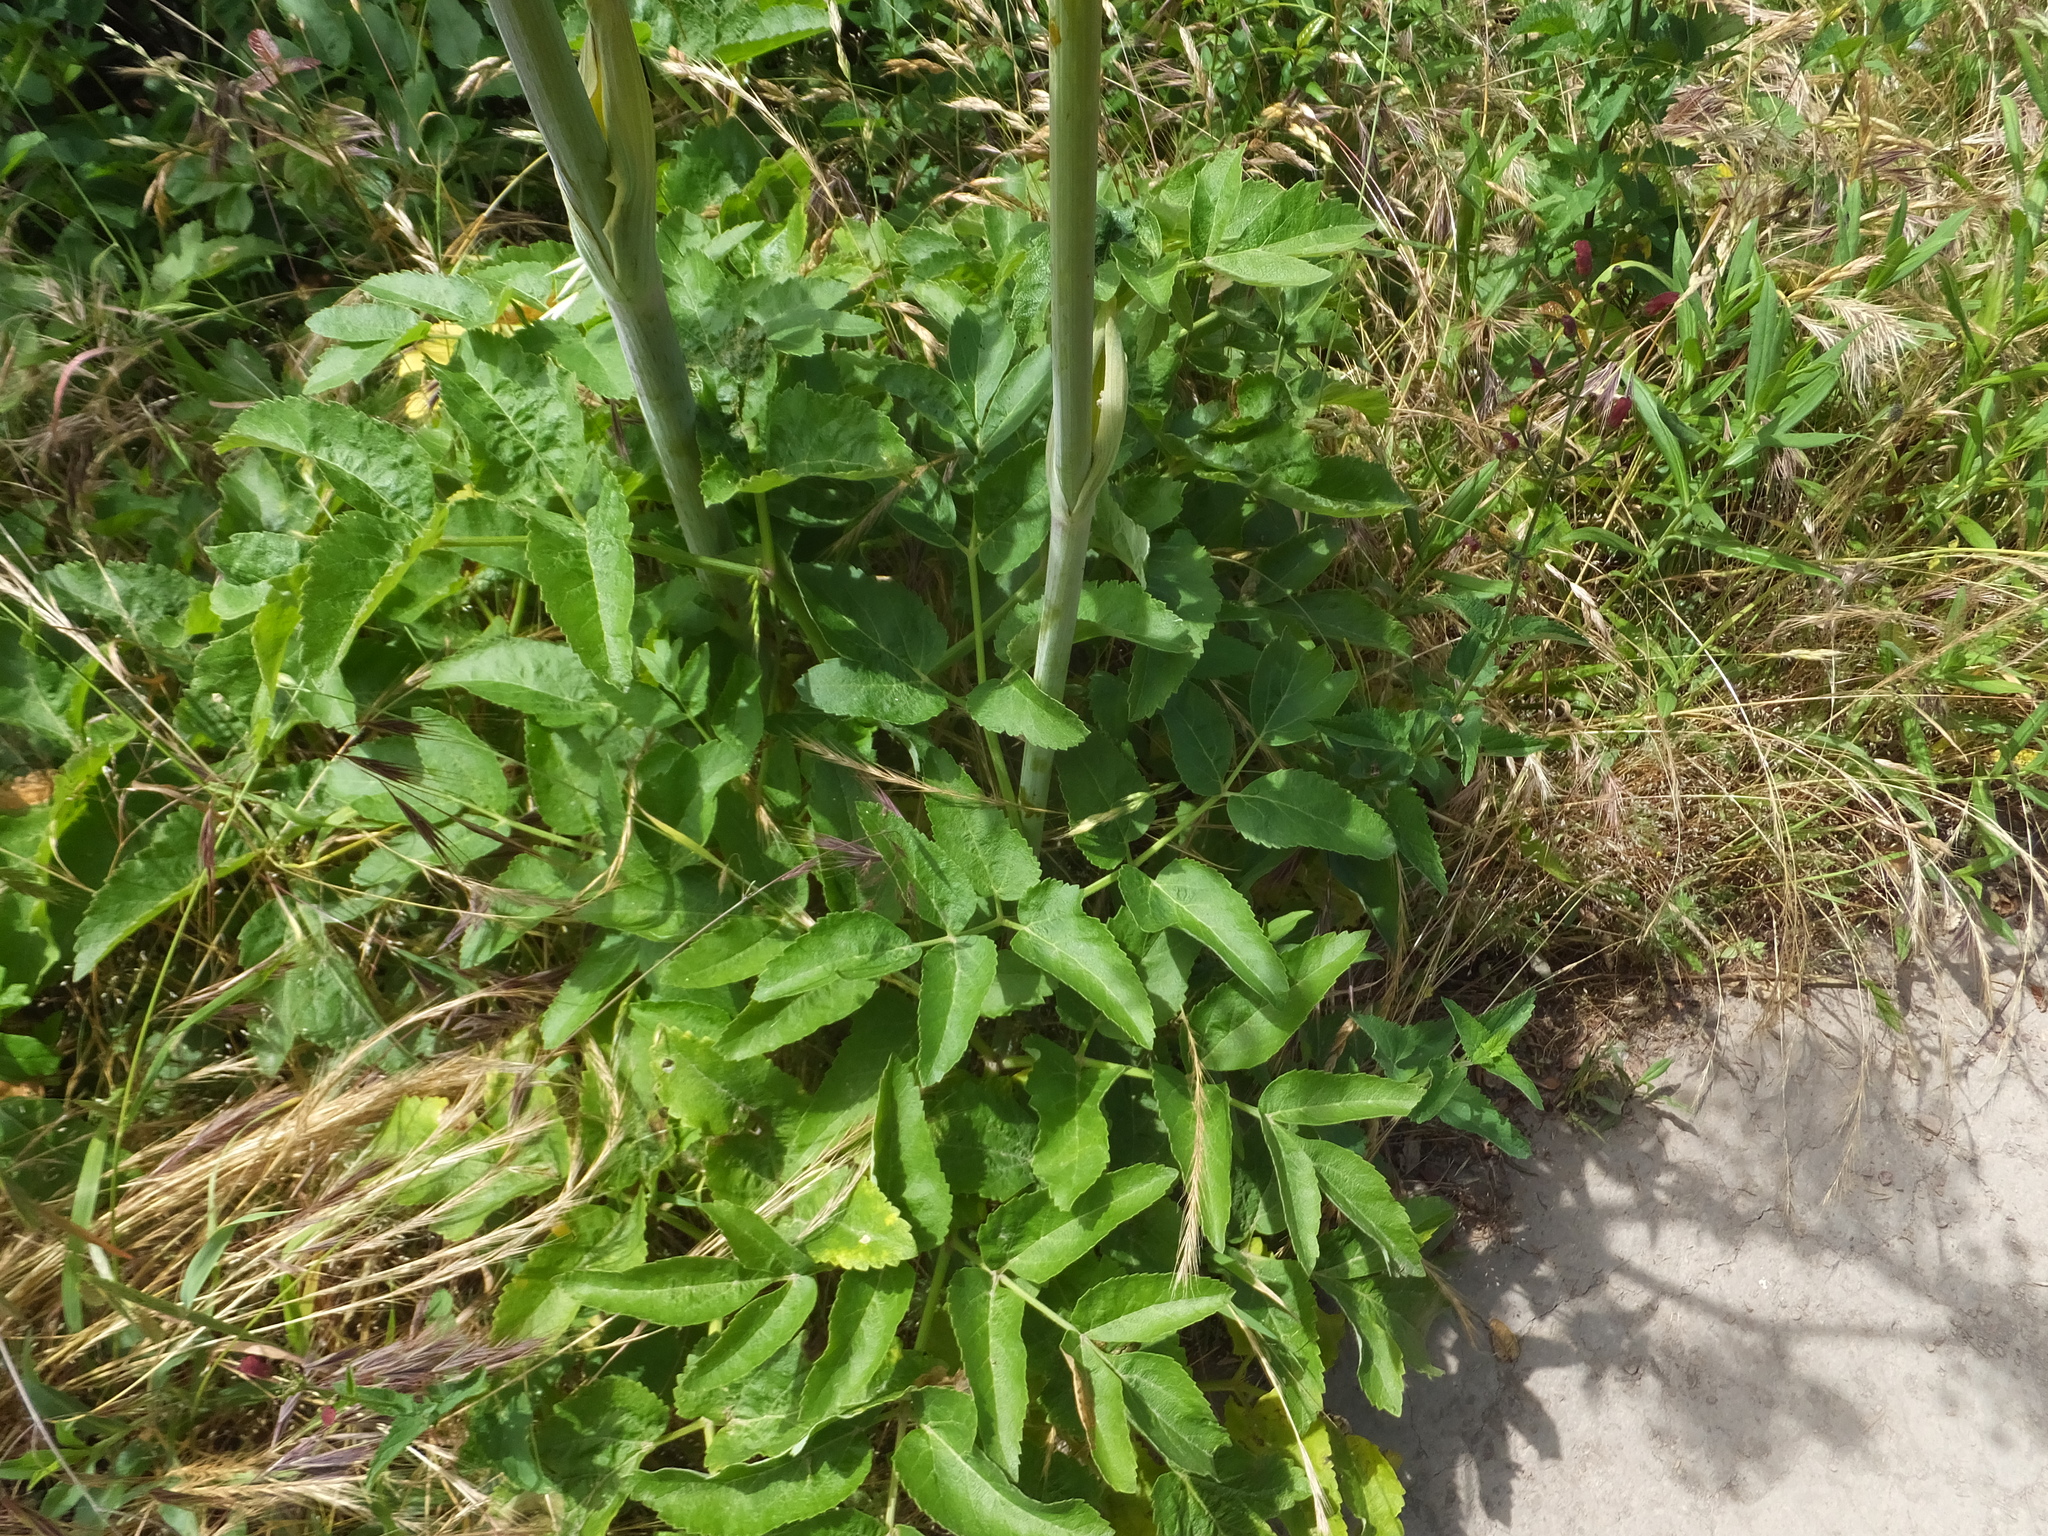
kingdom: Plantae
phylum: Tracheophyta
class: Magnoliopsida
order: Apiales
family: Apiaceae
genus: Angelica
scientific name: Angelica hendersonii
